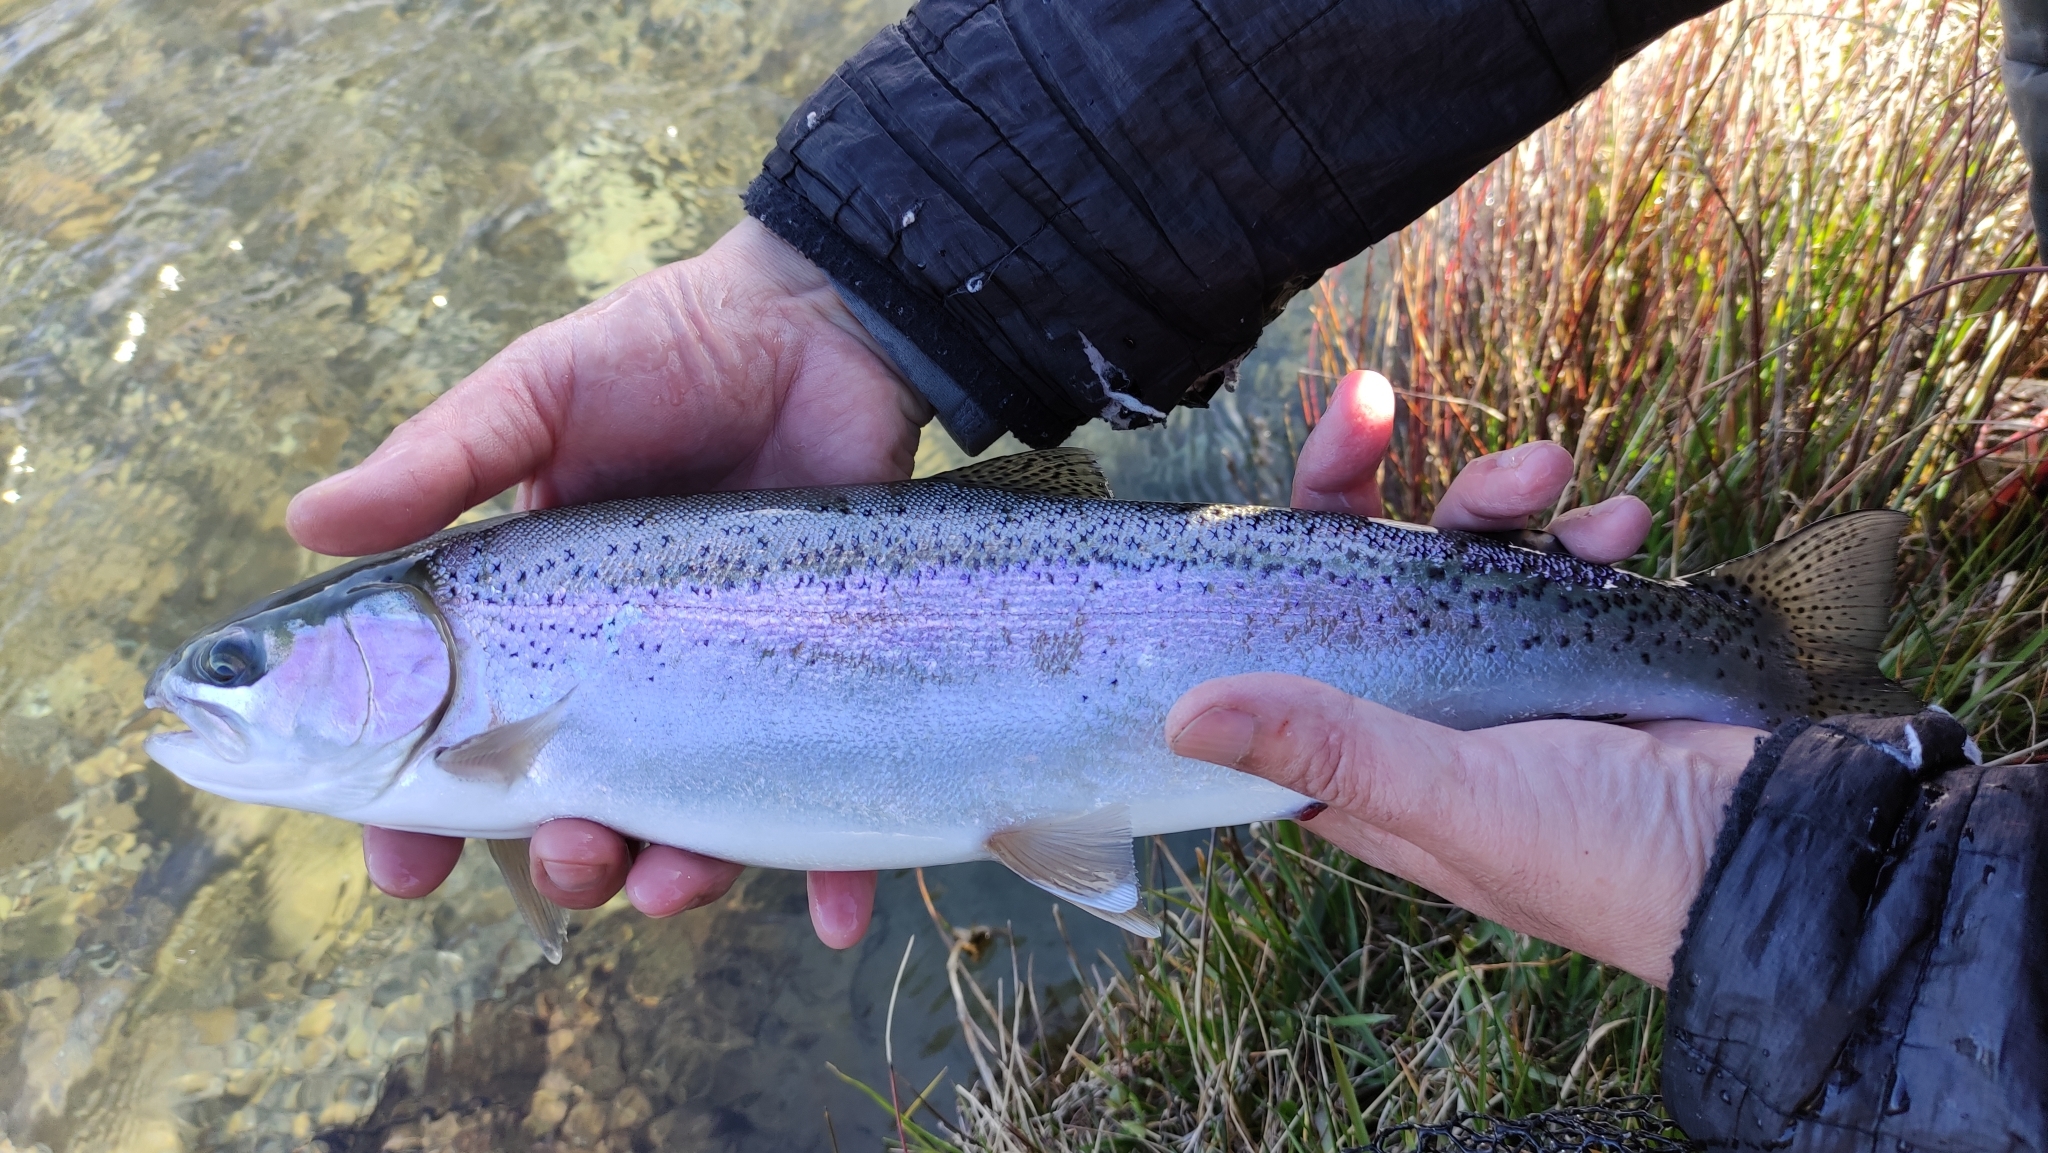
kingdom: Animalia
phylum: Chordata
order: Salmoniformes
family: Salmonidae
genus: Oncorhynchus
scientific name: Oncorhynchus mykiss
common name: Rainbow trout
